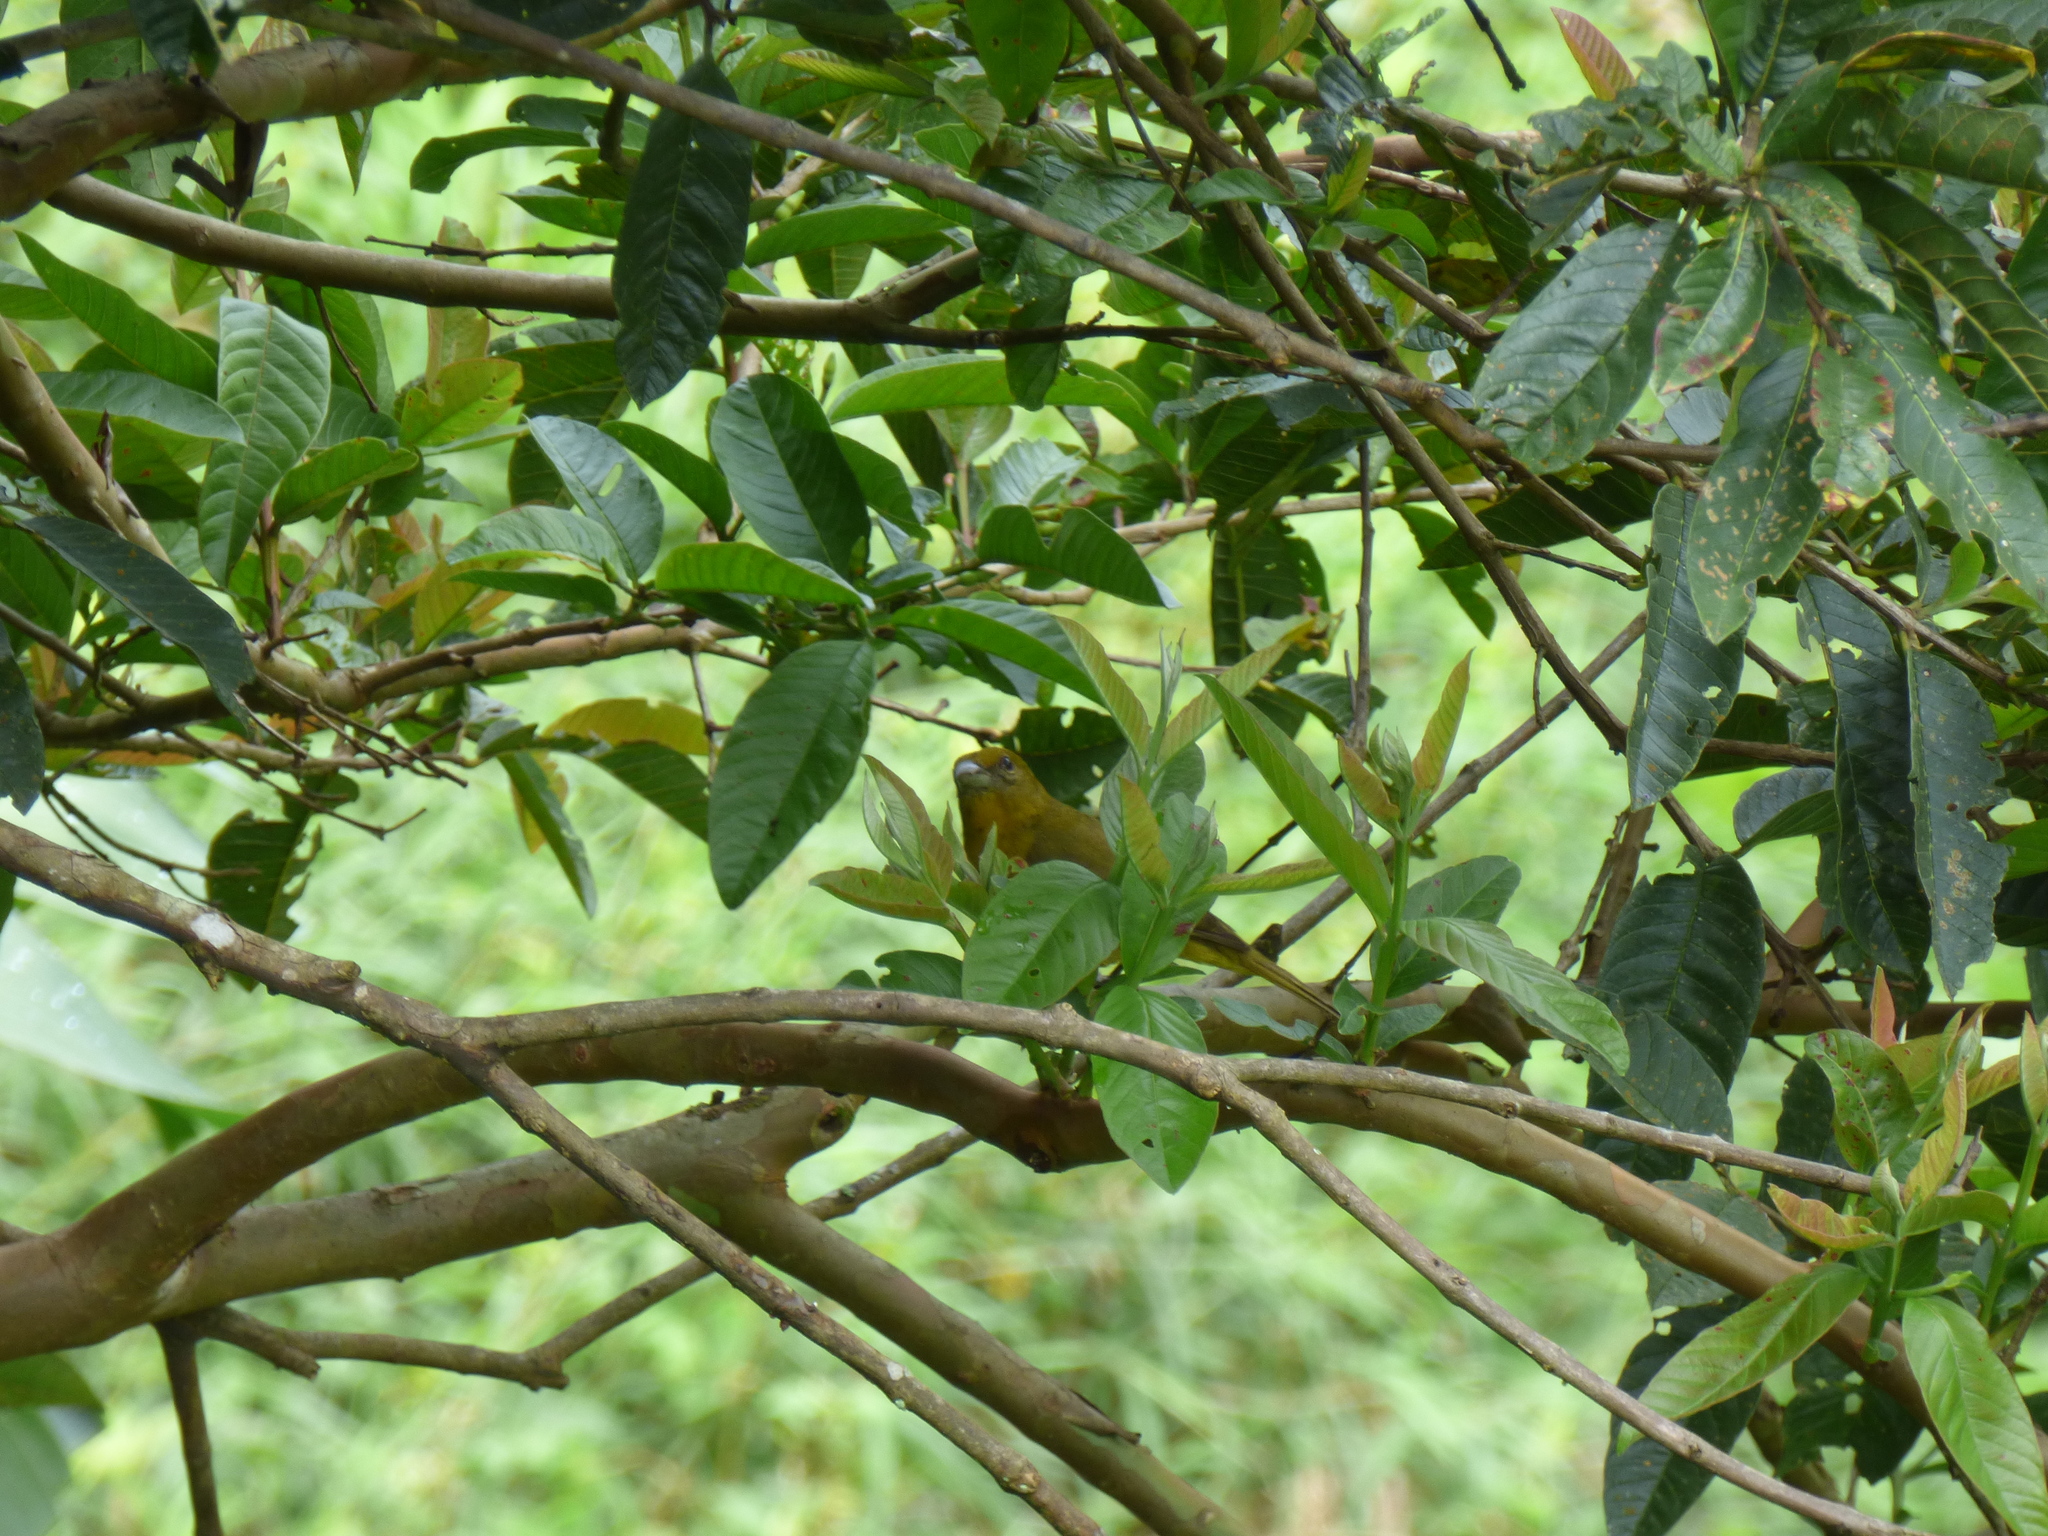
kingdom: Animalia
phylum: Chordata
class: Aves
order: Passeriformes
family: Cardinalidae
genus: Piranga
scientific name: Piranga flava
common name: Red tanager
